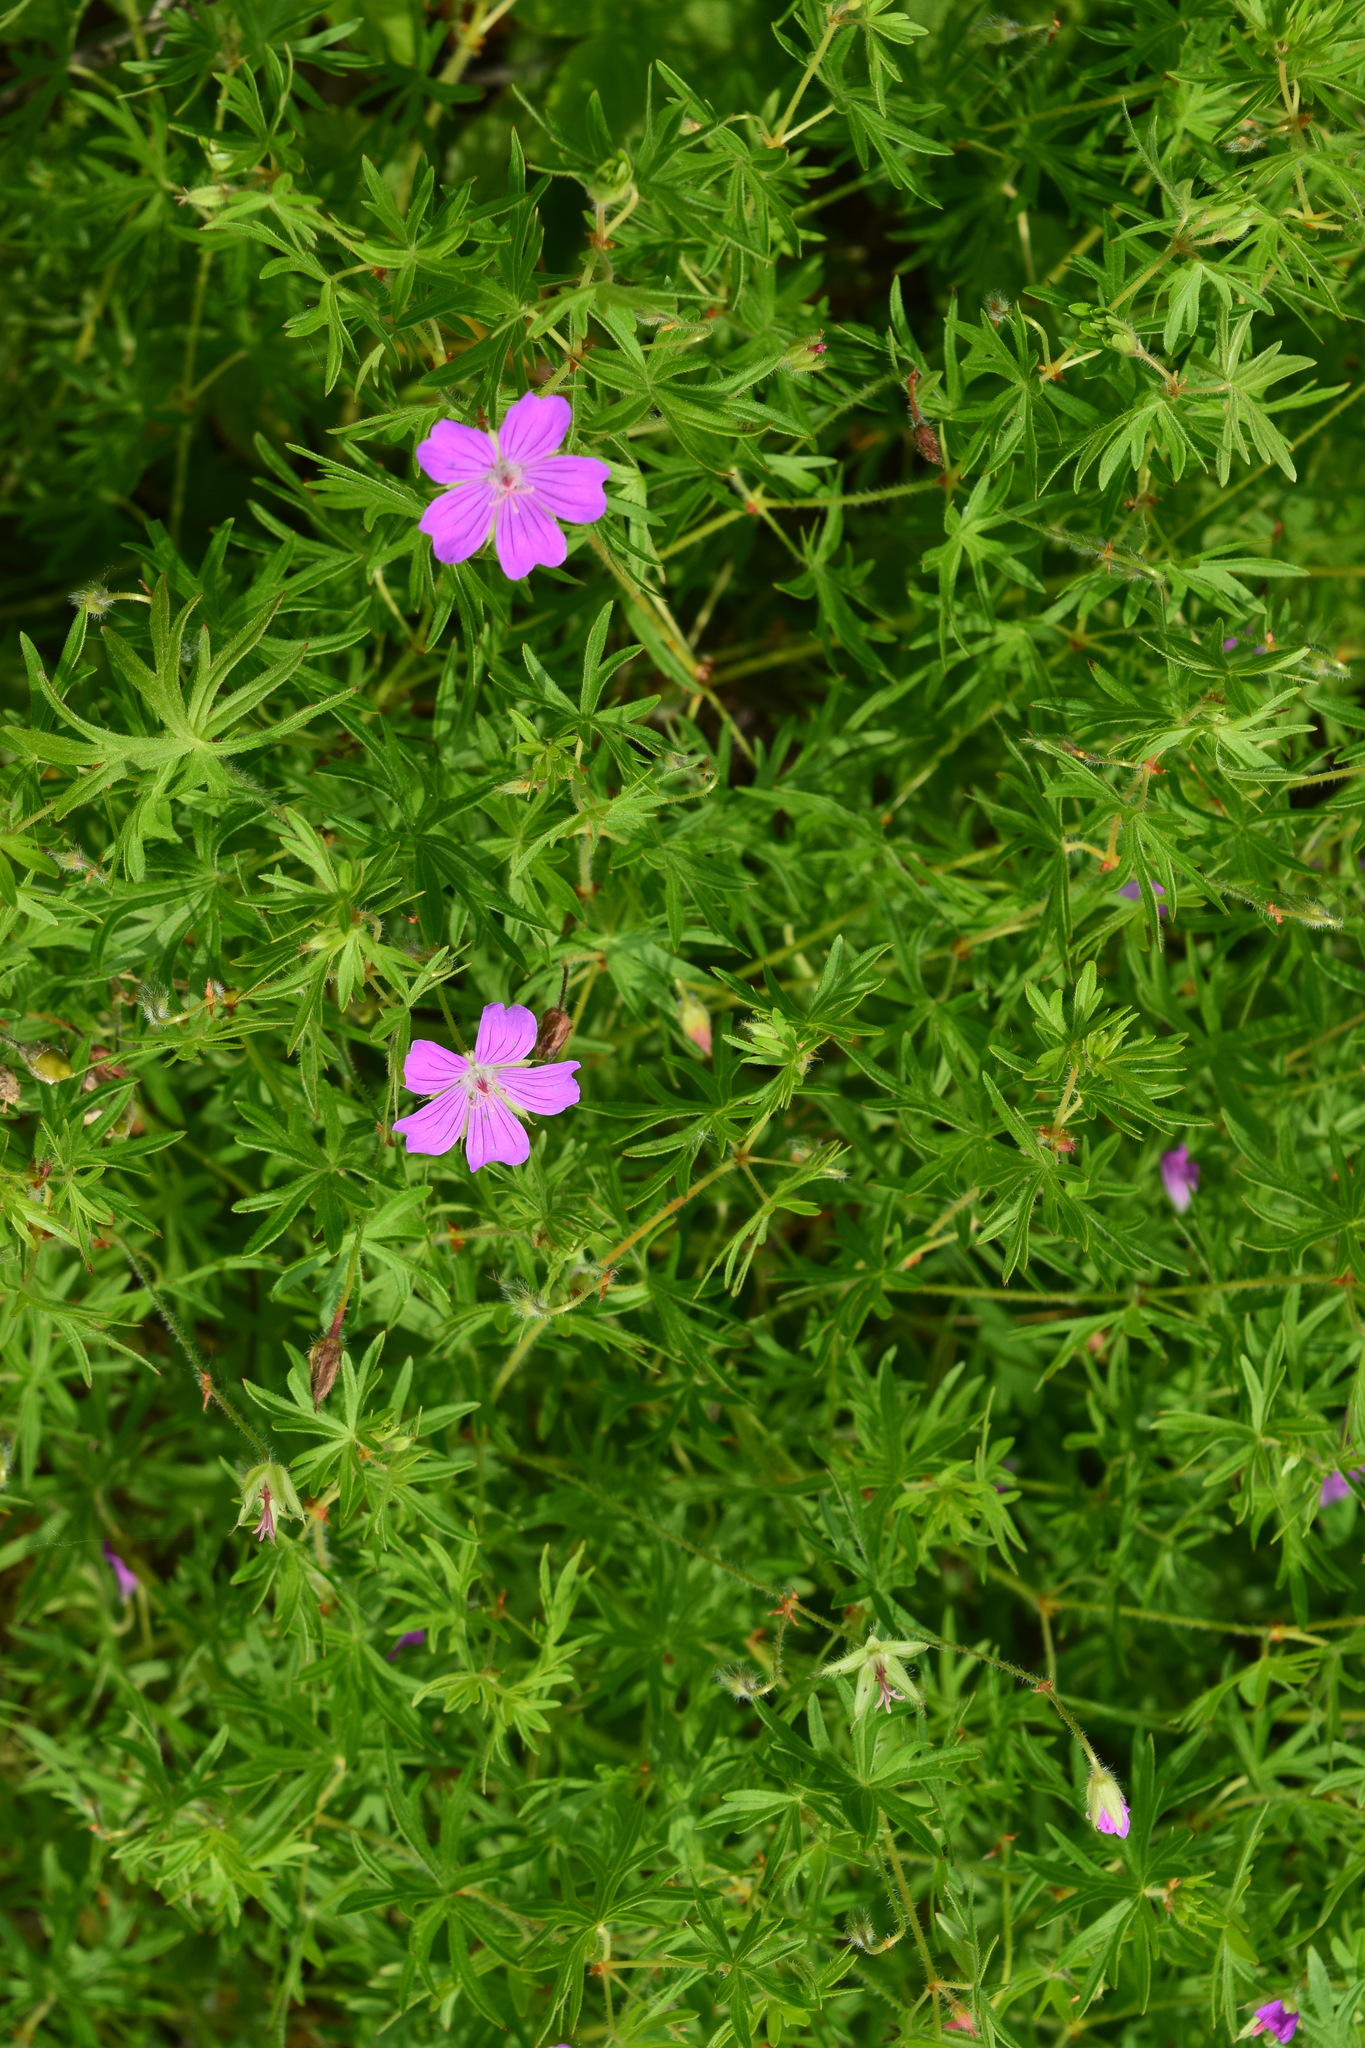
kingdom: Plantae
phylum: Tracheophyta
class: Magnoliopsida
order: Geraniales
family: Geraniaceae
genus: Geranium
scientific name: Geranium sanguineum
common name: Bloody crane's-bill
